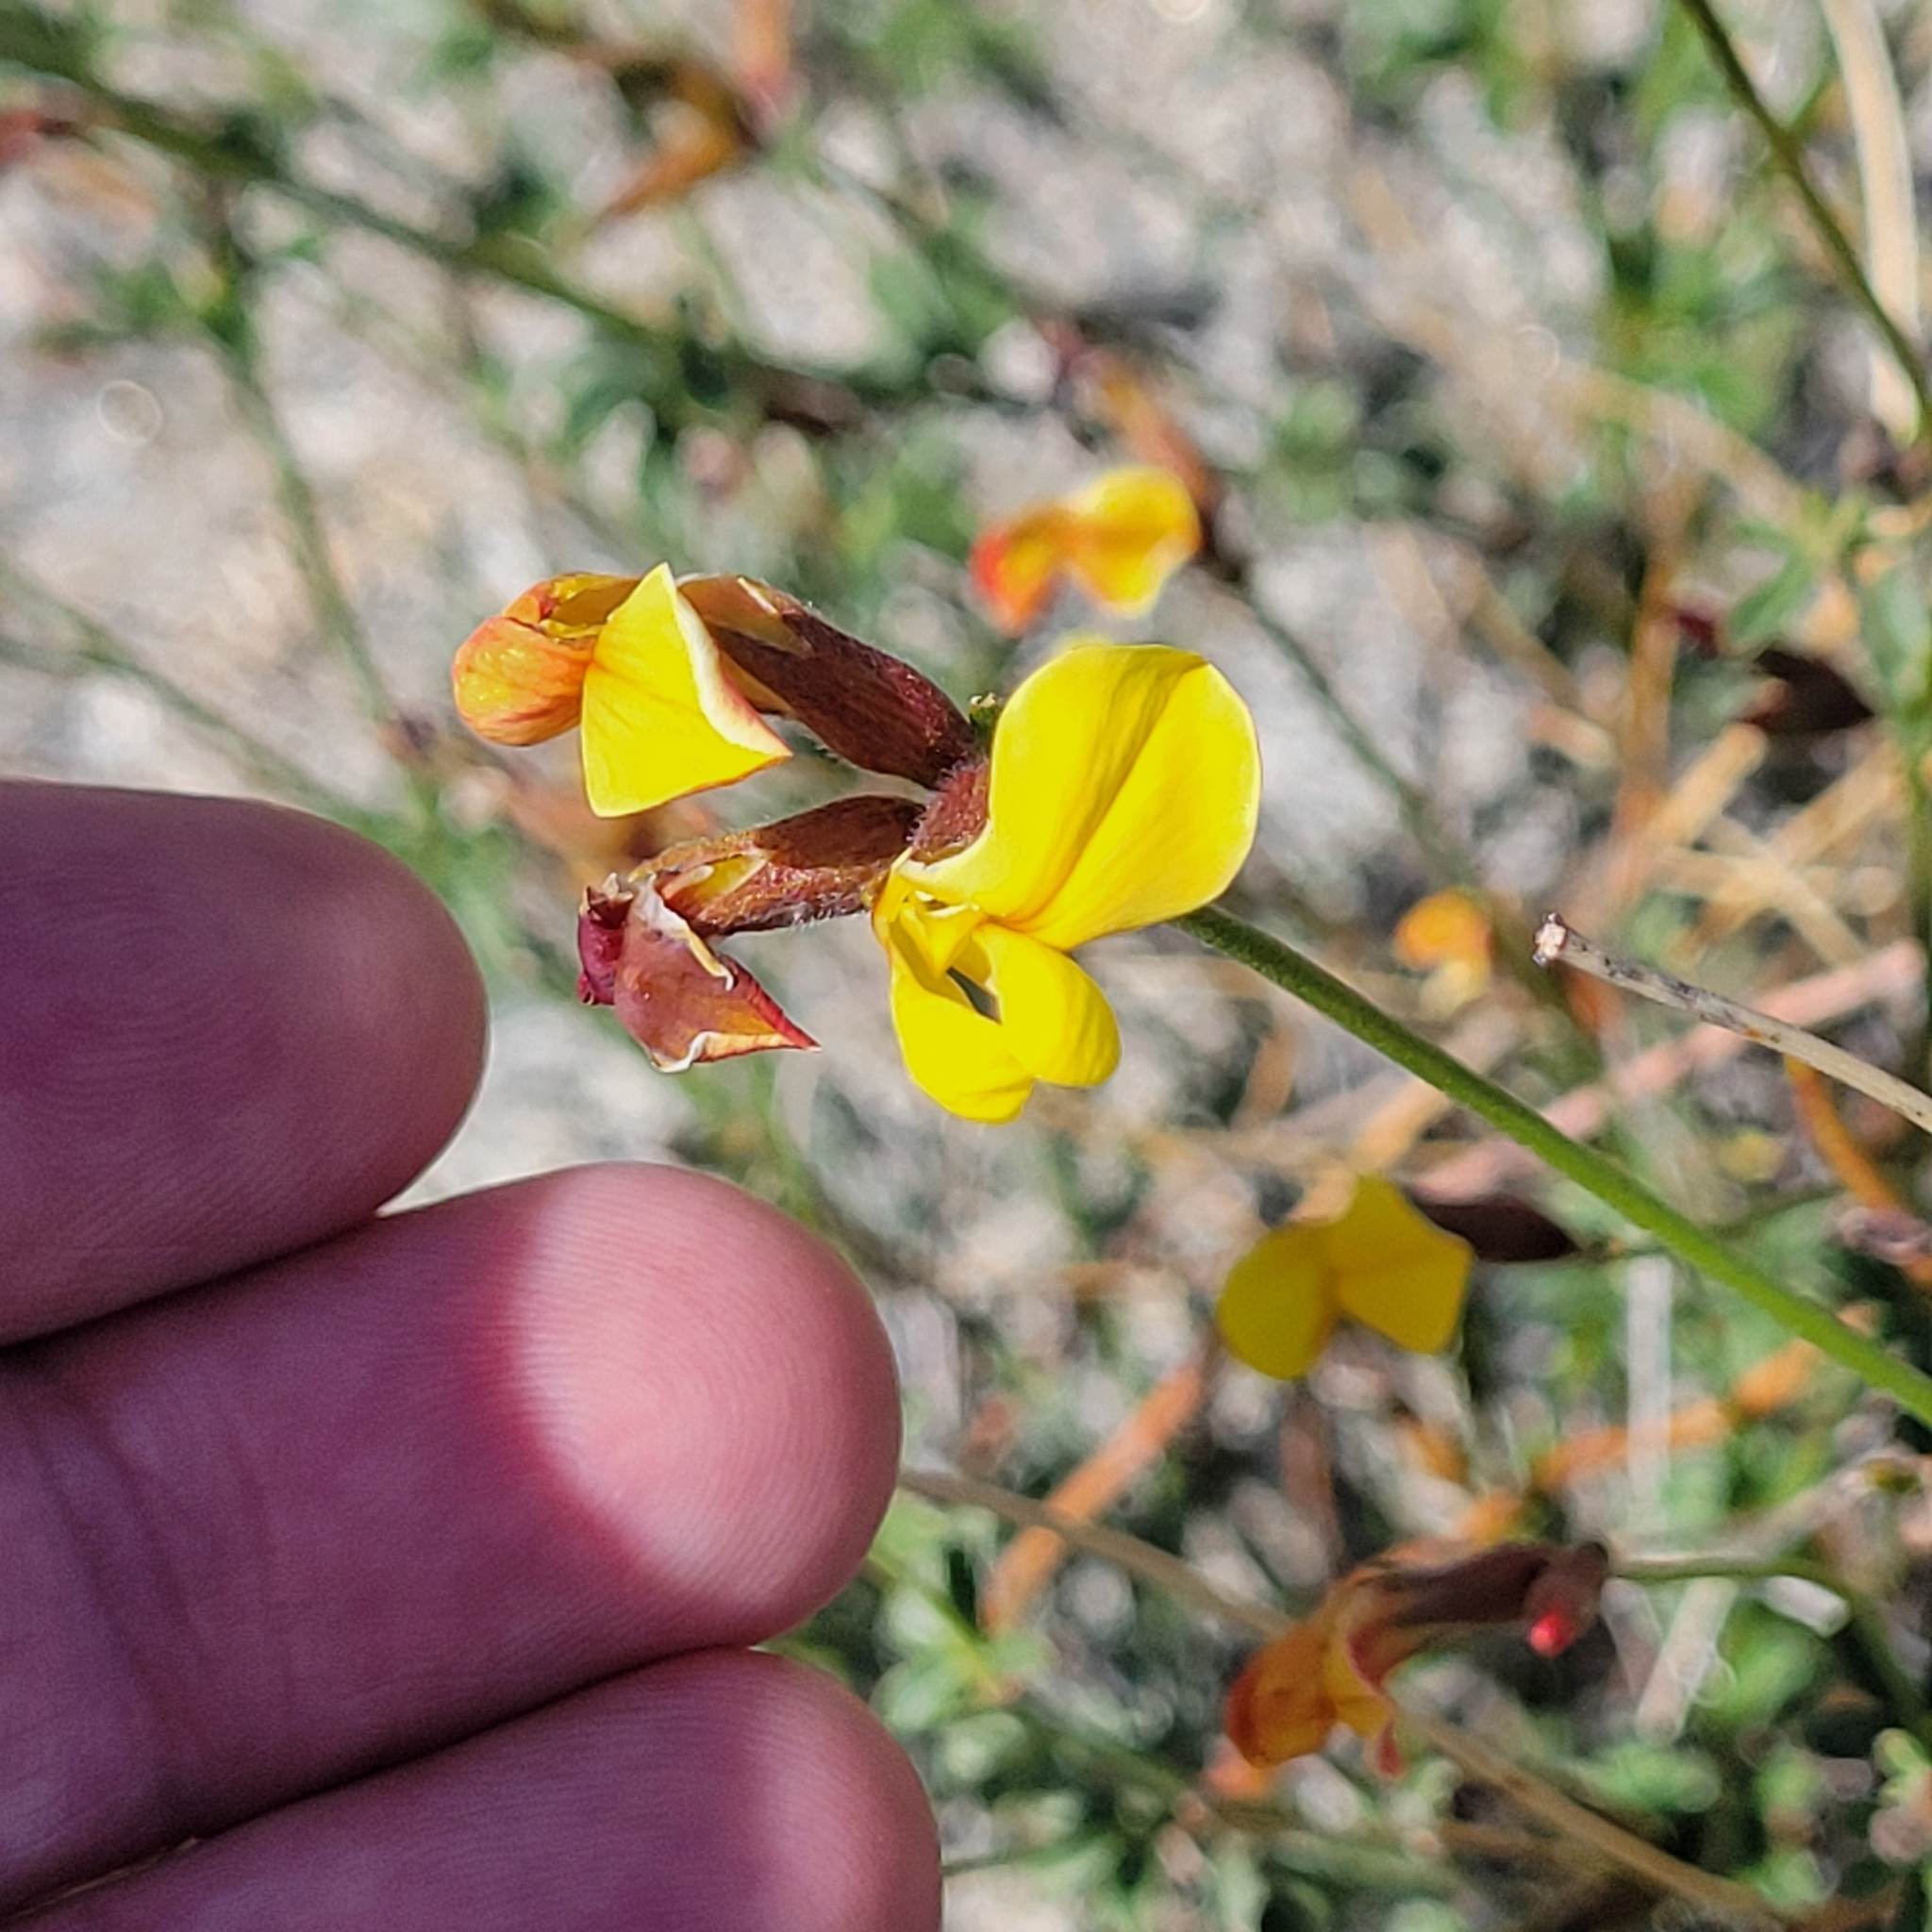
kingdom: Plantae
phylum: Tracheophyta
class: Magnoliopsida
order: Fabales
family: Fabaceae
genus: Acmispon
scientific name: Acmispon rigidus
